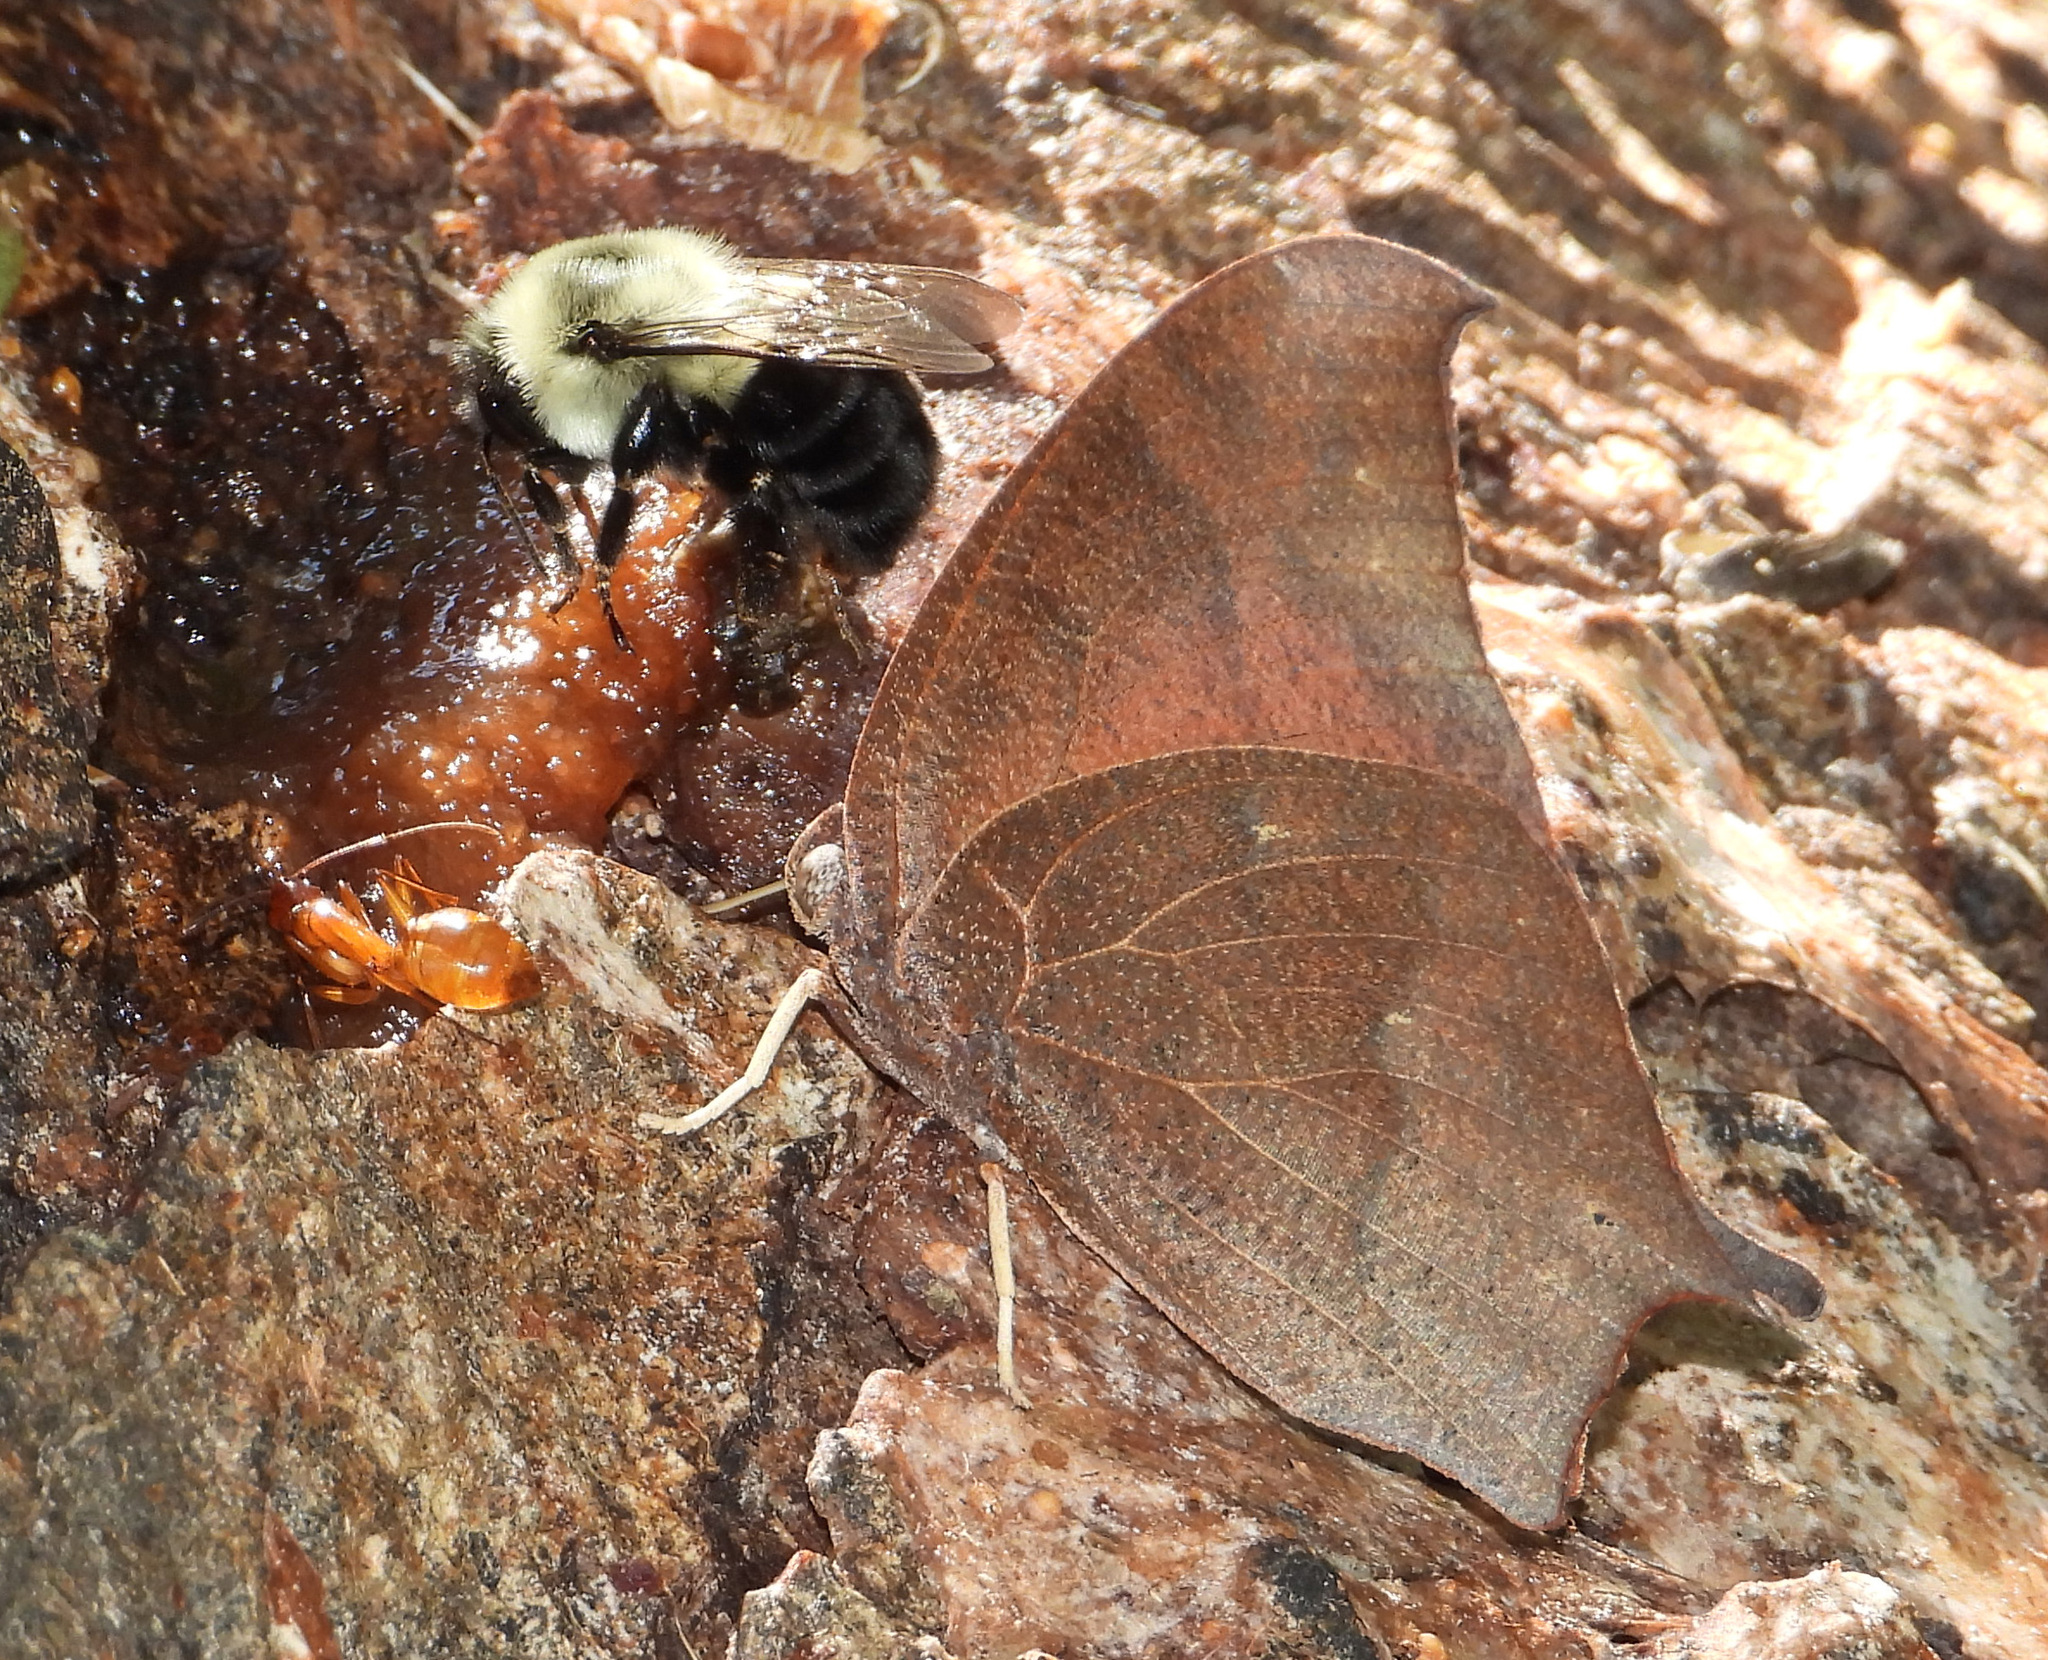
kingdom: Animalia
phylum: Arthropoda
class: Insecta
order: Lepidoptera
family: Nymphalidae
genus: Anaea
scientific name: Anaea andria
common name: Goatweed leafwing
